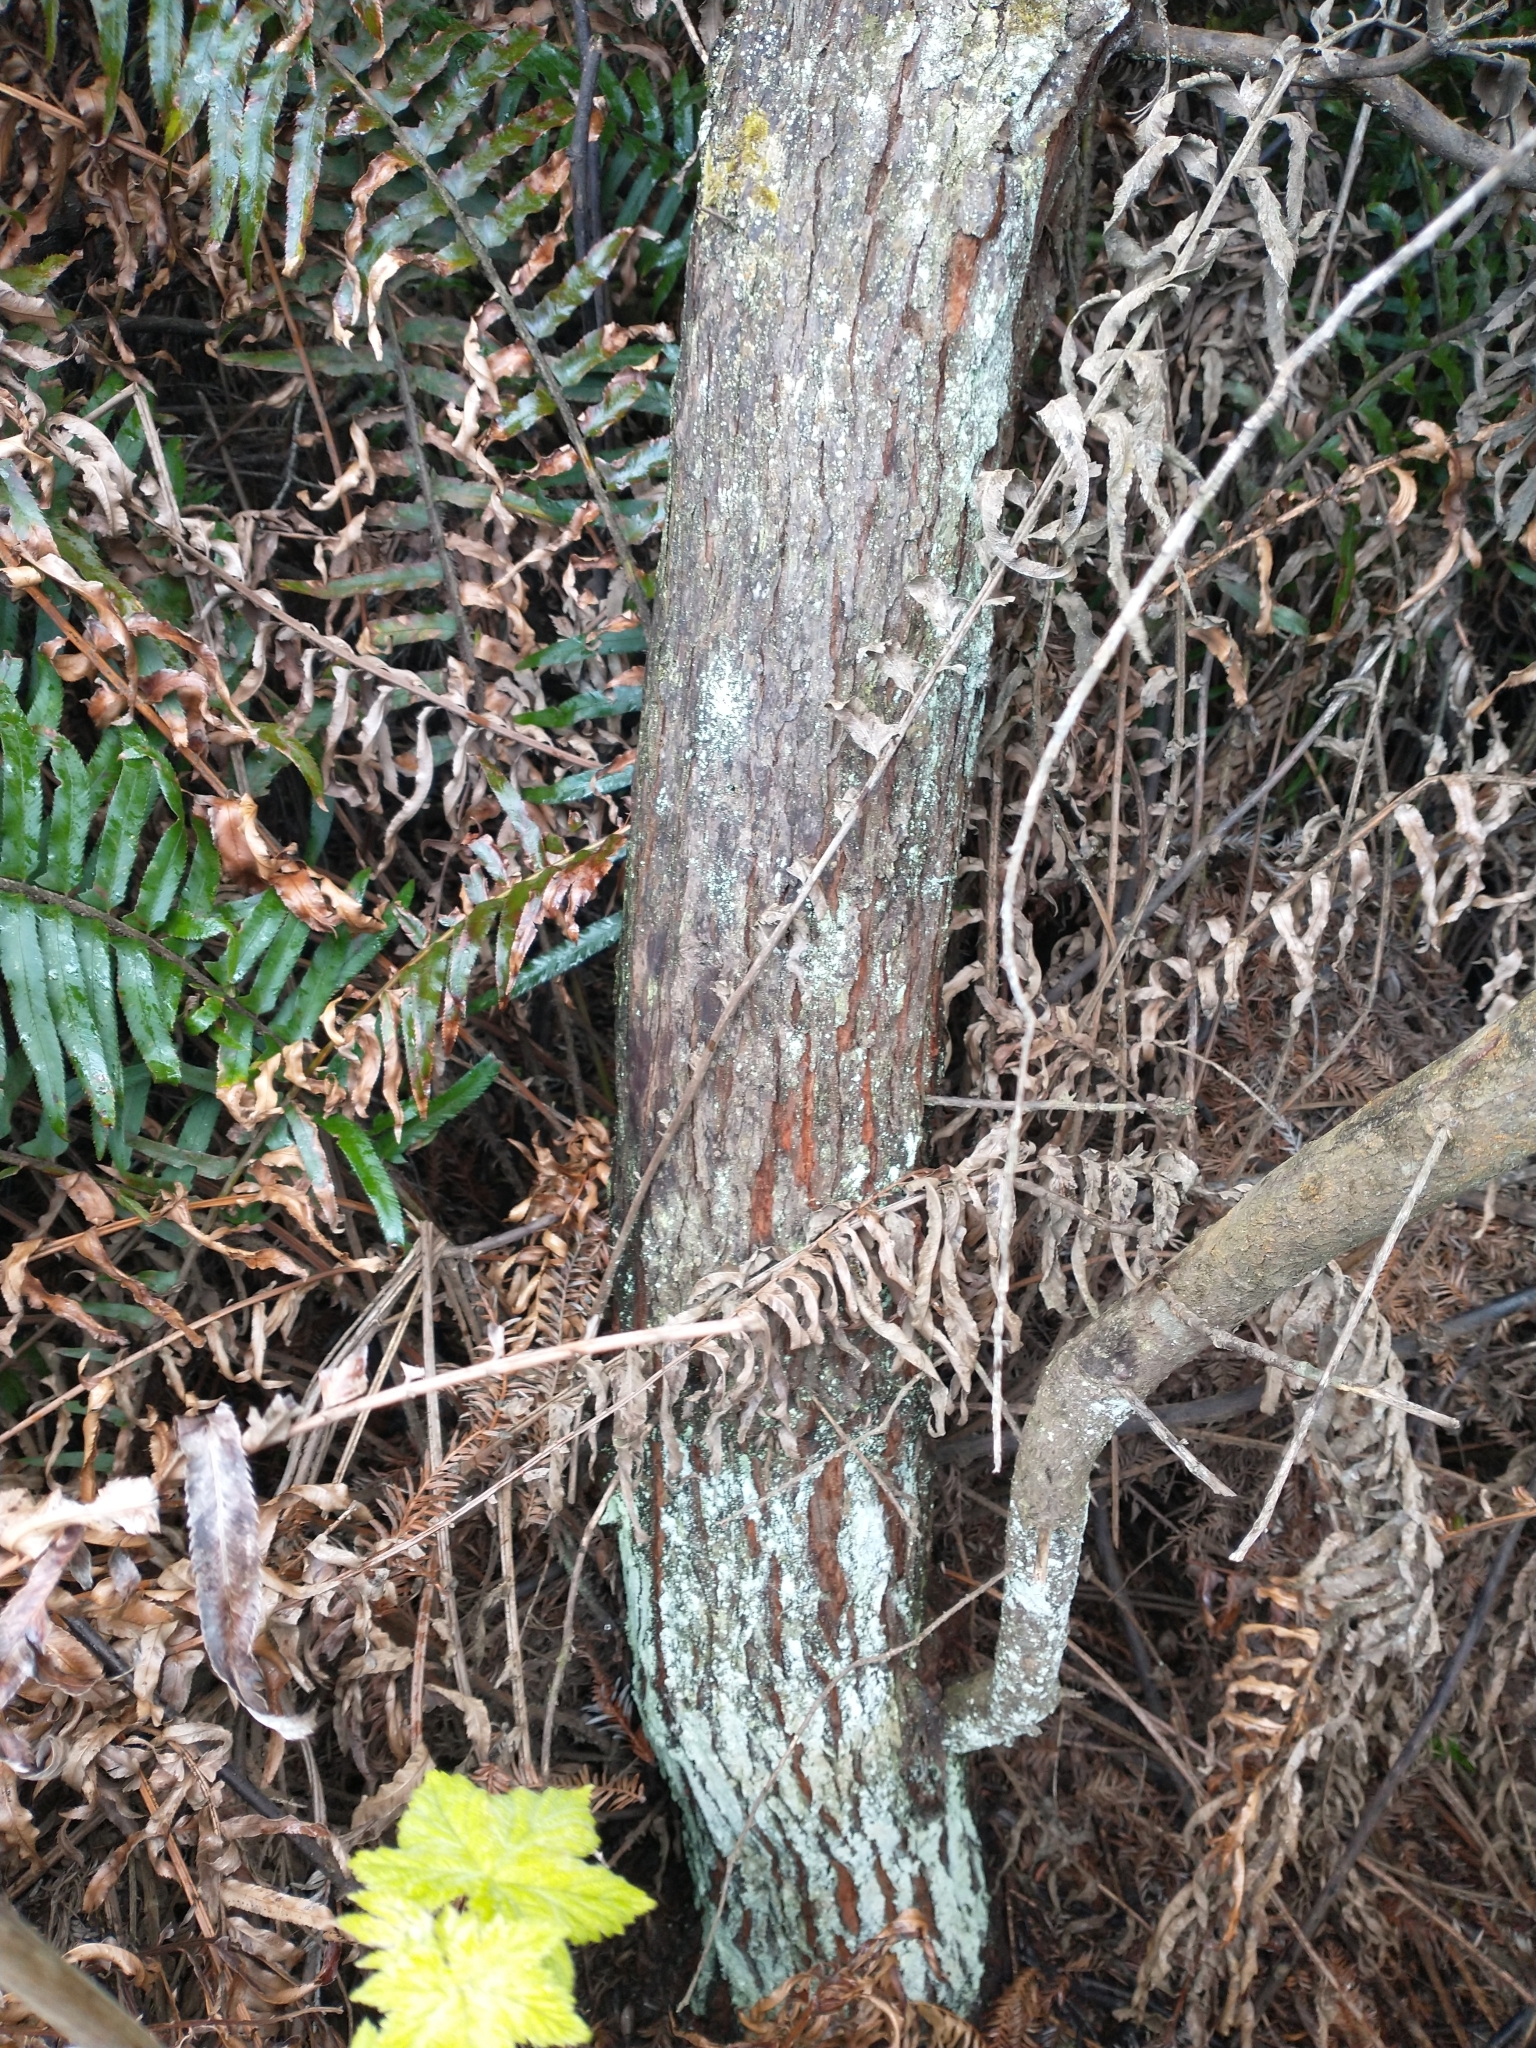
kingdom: Plantae
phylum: Tracheophyta
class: Pinopsida
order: Pinales
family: Cupressaceae
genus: Sequoia
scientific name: Sequoia sempervirens
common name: Coast redwood
